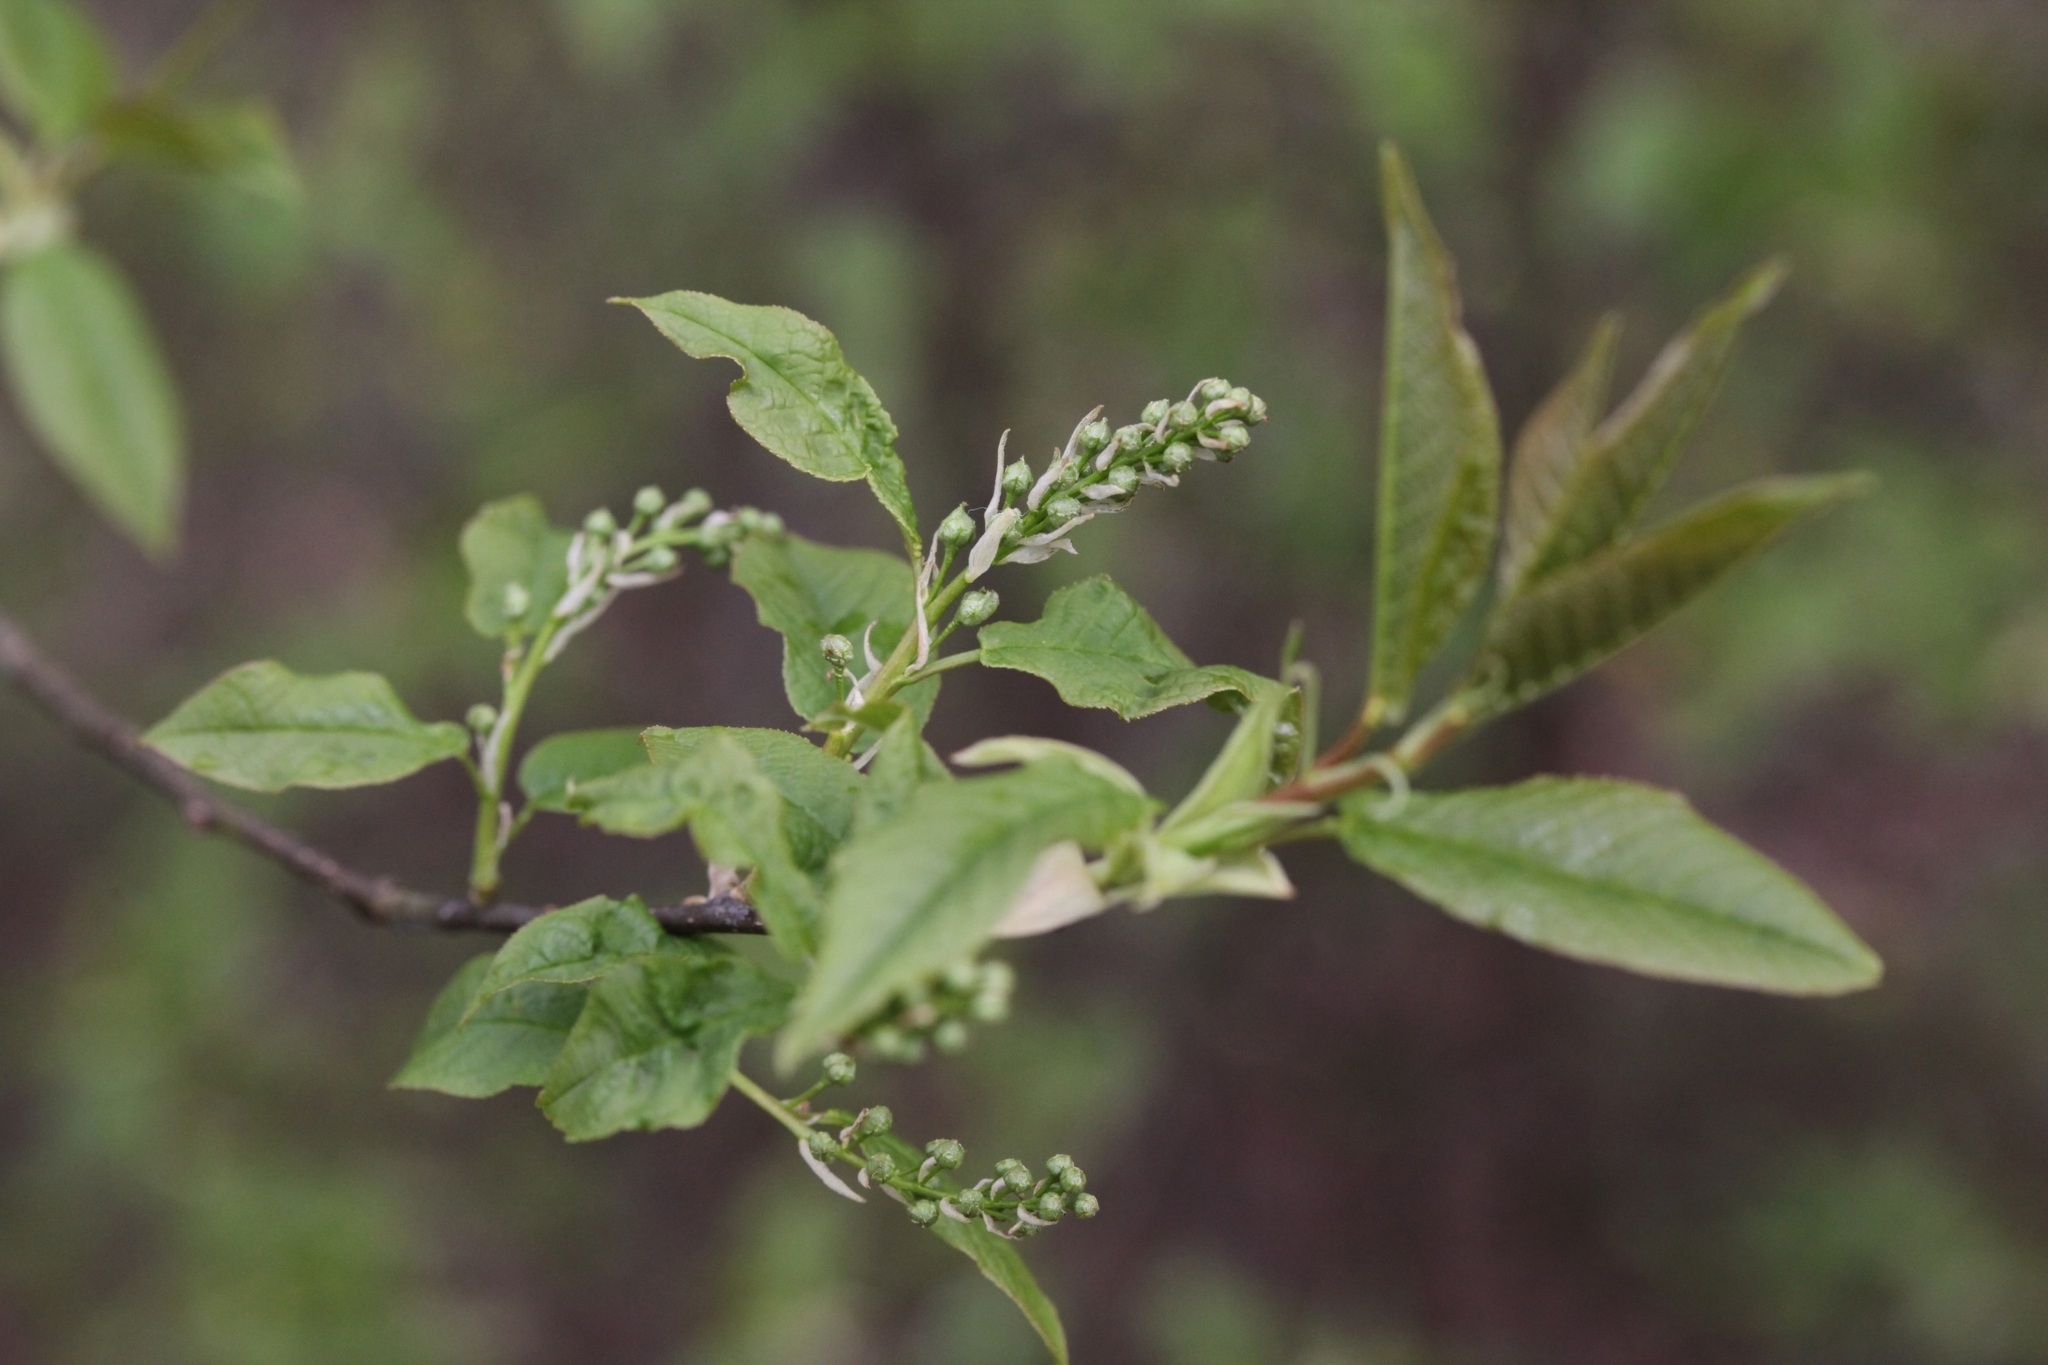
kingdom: Plantae
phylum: Tracheophyta
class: Magnoliopsida
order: Rosales
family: Rosaceae
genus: Prunus
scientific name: Prunus padus
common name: Bird cherry
